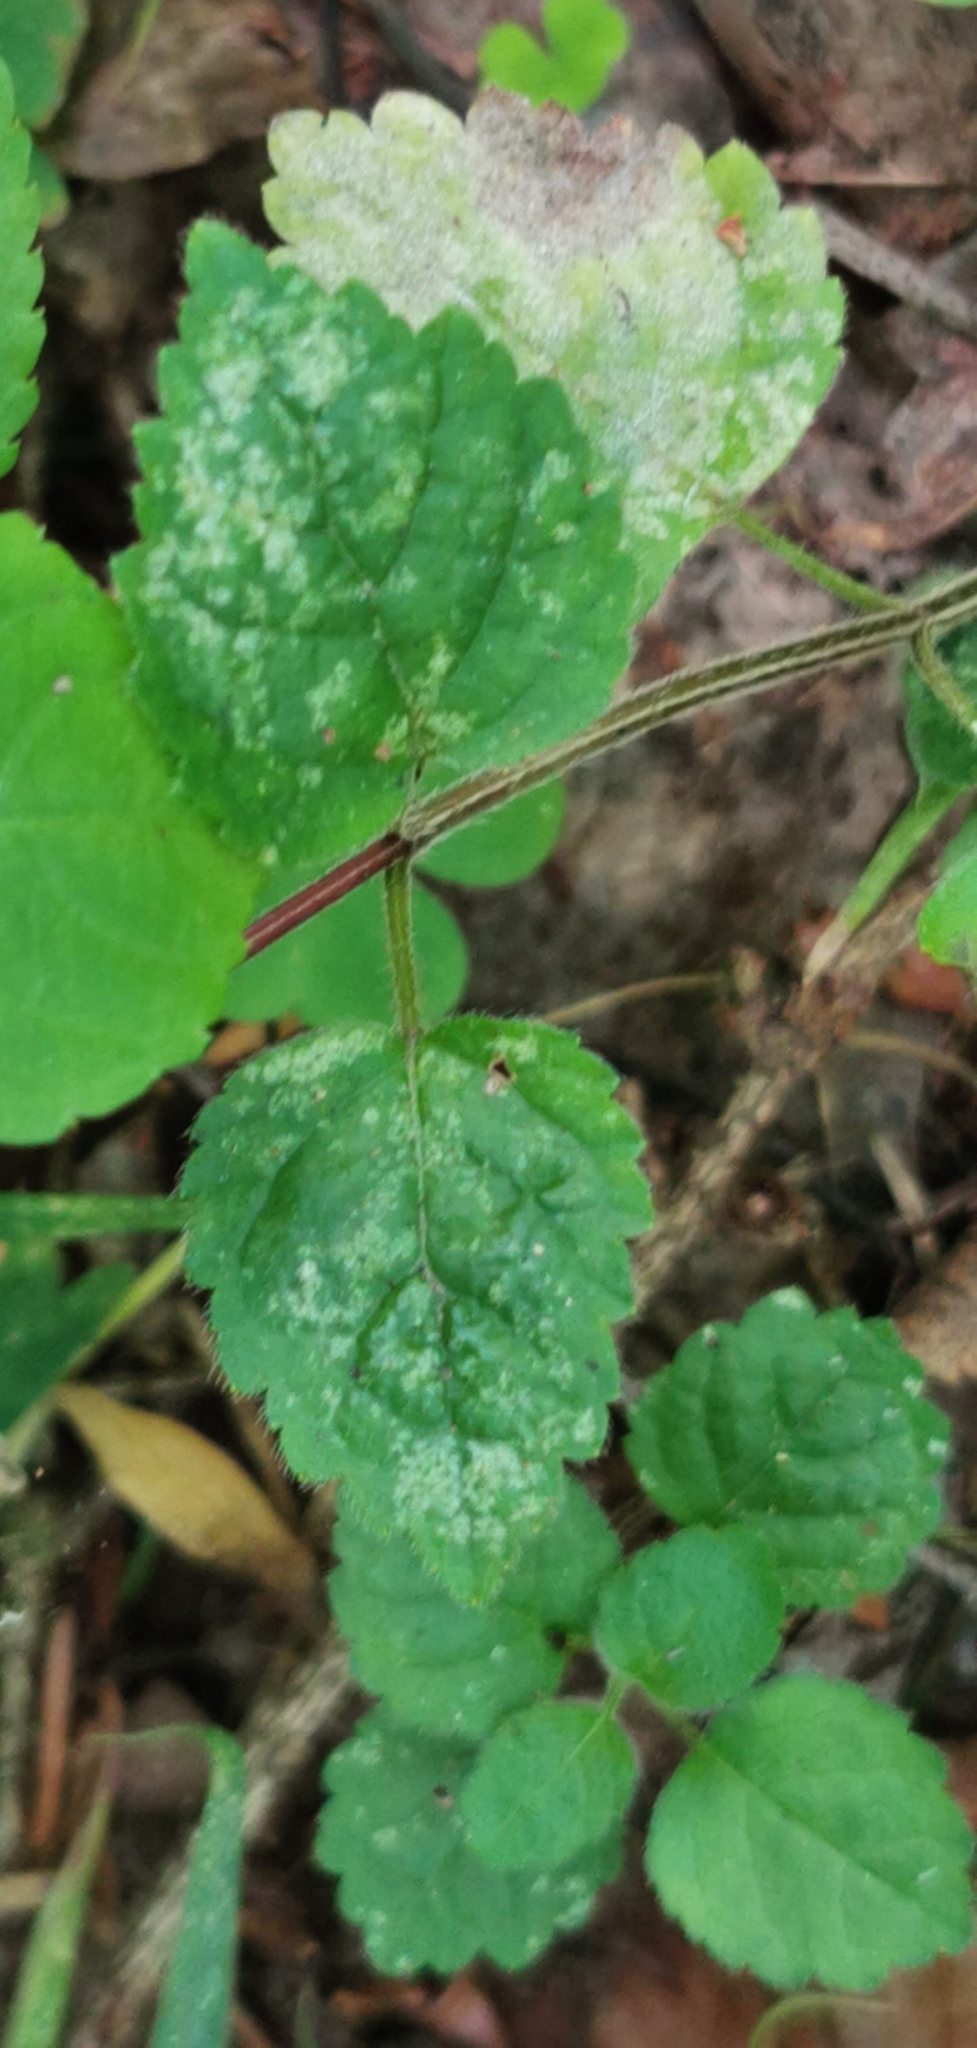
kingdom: Plantae
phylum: Tracheophyta
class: Magnoliopsida
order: Lamiales
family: Lamiaceae
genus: Lamium
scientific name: Lamium galeobdolon
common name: Yellow archangel
